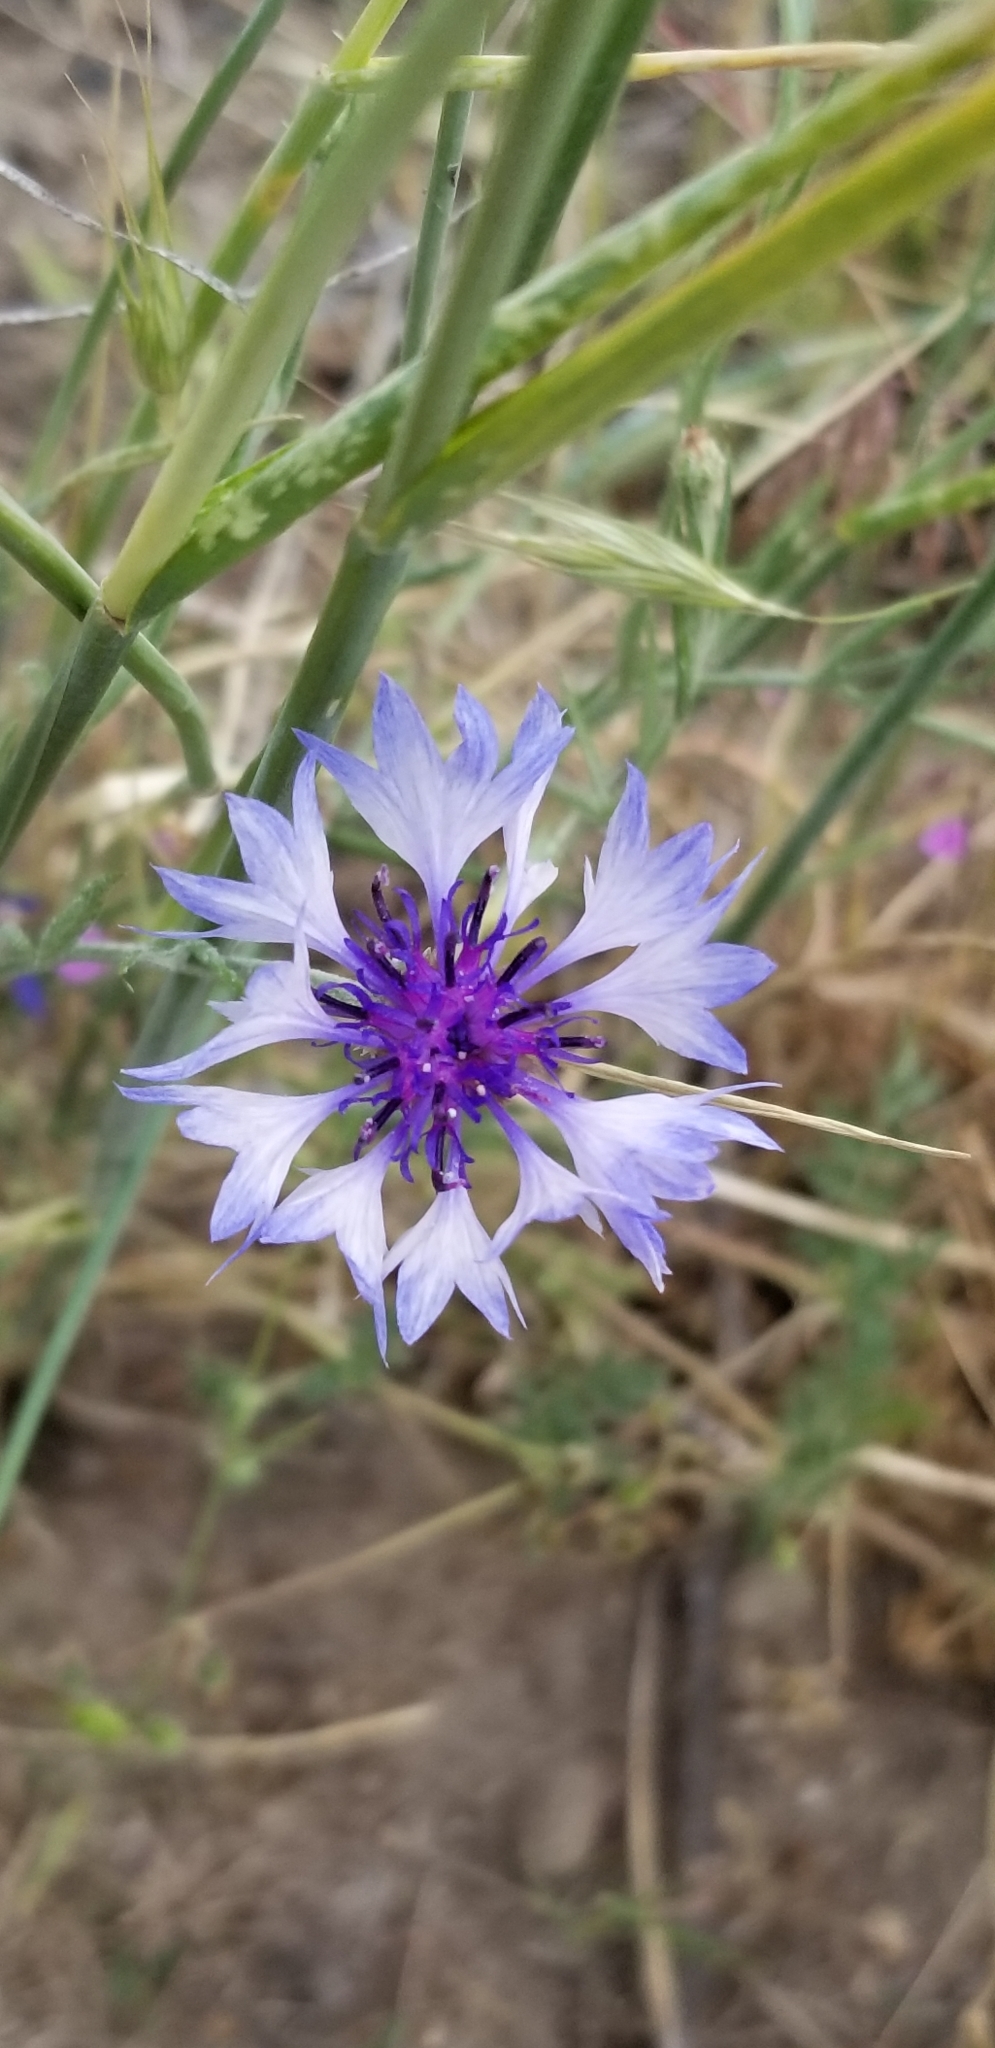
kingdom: Plantae
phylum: Tracheophyta
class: Magnoliopsida
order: Asterales
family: Asteraceae
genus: Centaurea
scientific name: Centaurea cyanus
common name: Cornflower
